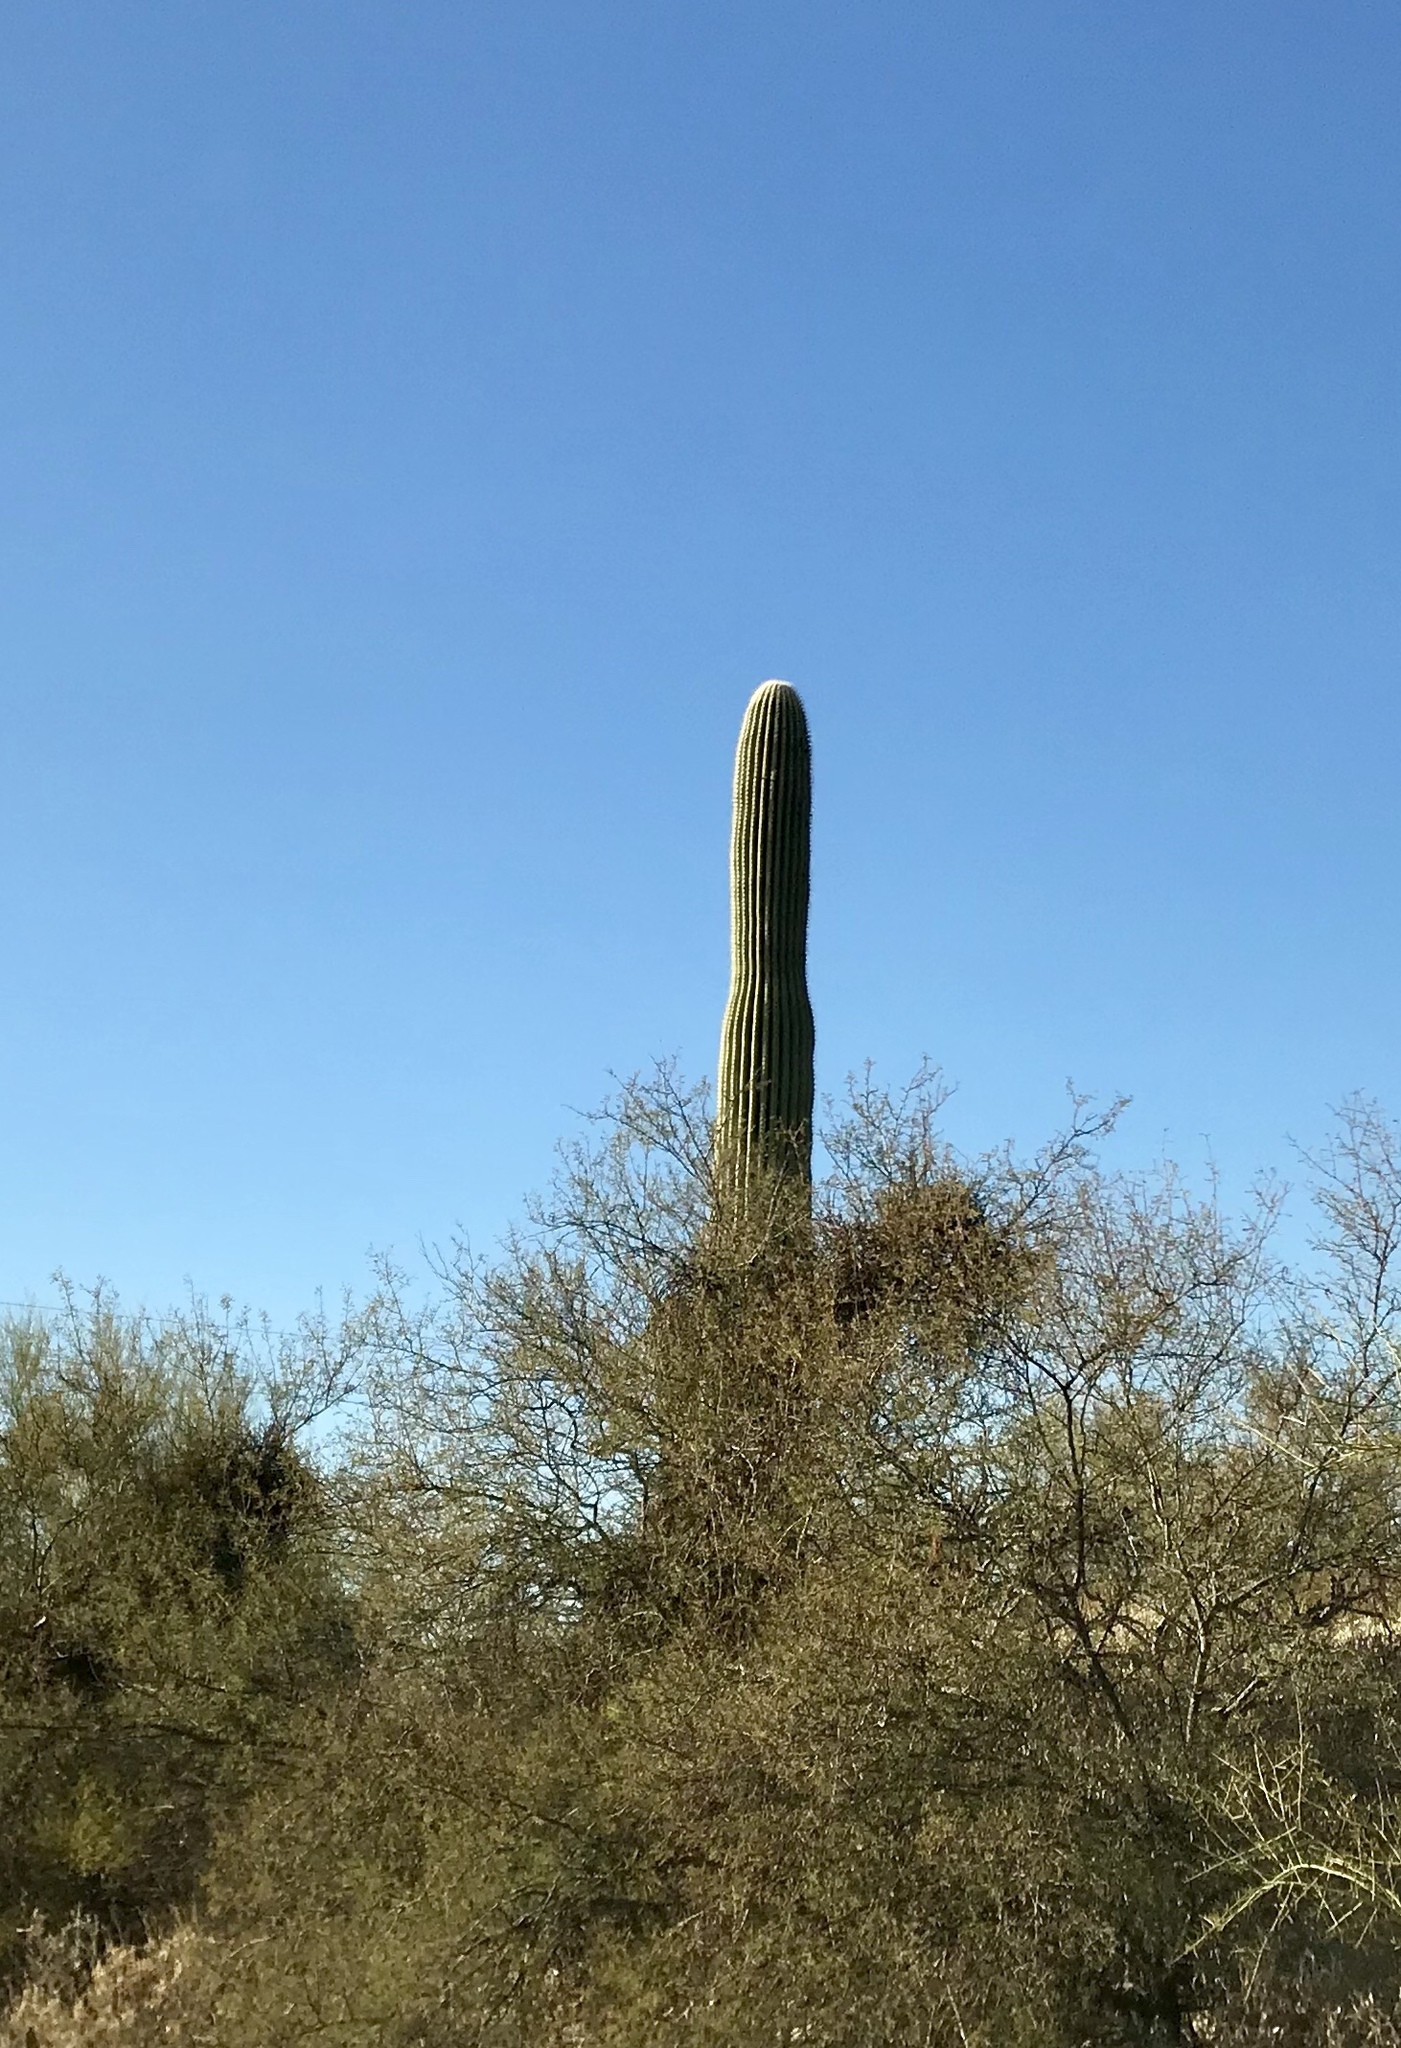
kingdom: Plantae
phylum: Tracheophyta
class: Magnoliopsida
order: Caryophyllales
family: Cactaceae
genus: Carnegiea
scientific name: Carnegiea gigantea
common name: Saguaro
